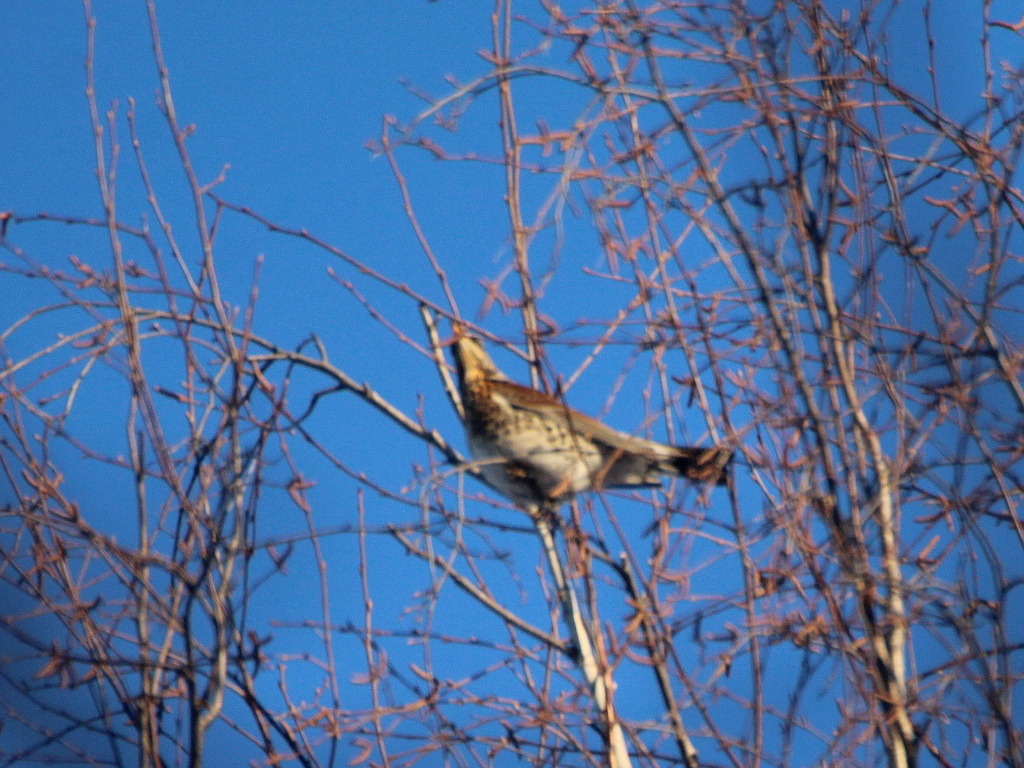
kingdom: Animalia
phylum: Chordata
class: Aves
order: Passeriformes
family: Turdidae
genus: Turdus
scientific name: Turdus pilaris
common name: Fieldfare
